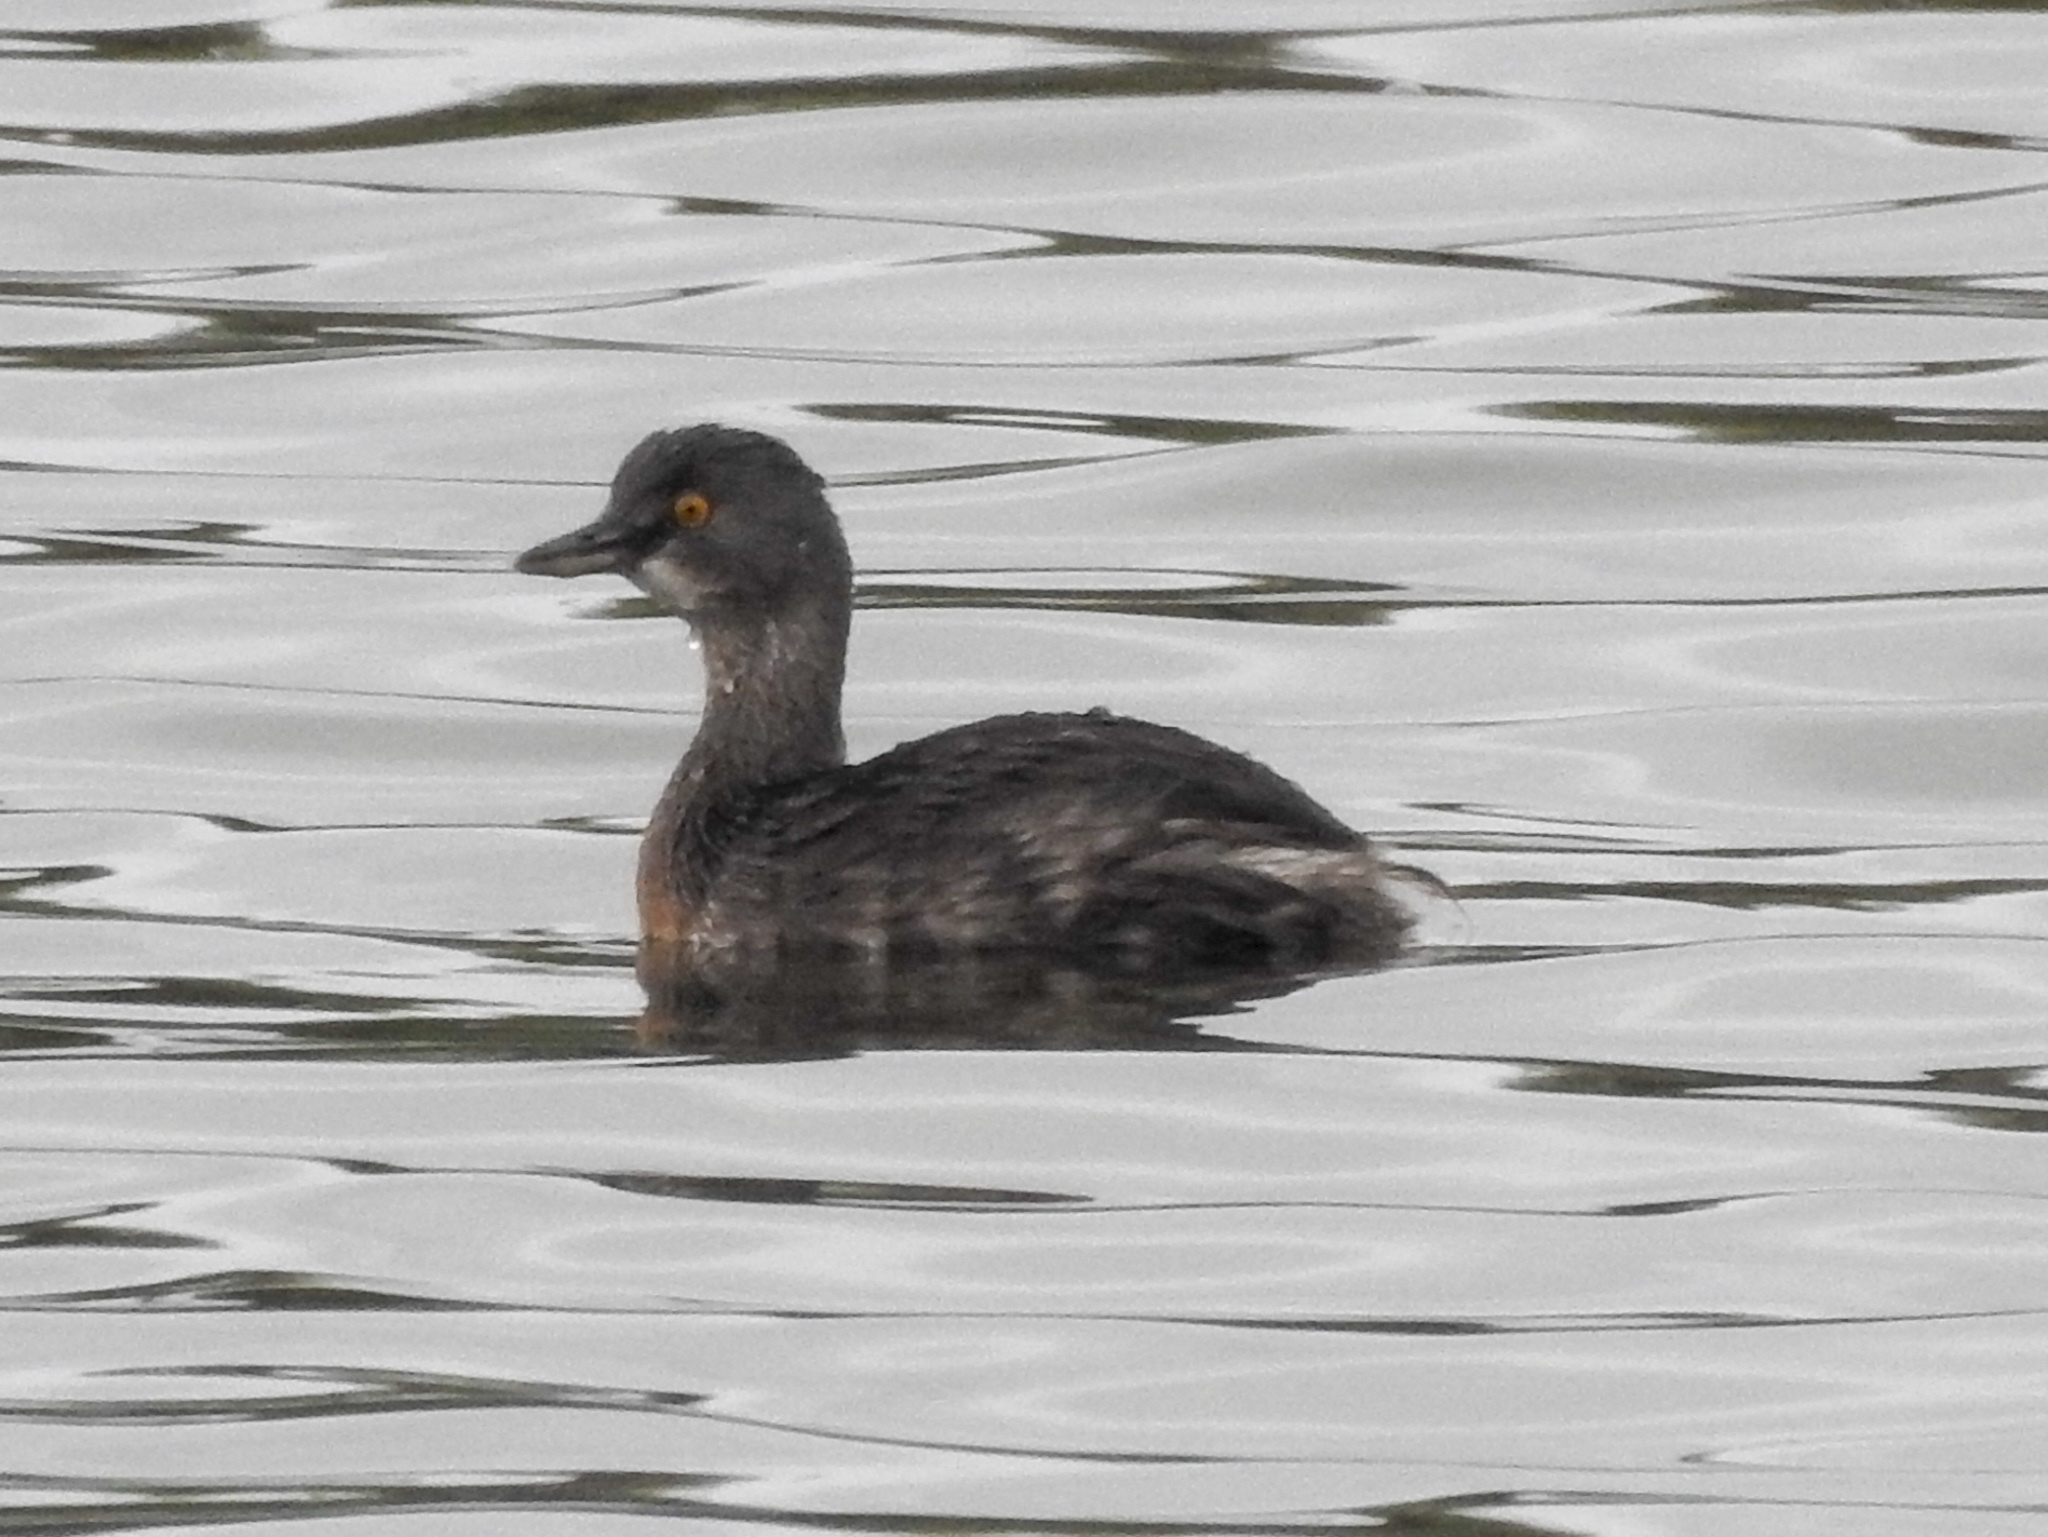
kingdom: Animalia
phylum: Chordata
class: Aves
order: Podicipediformes
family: Podicipedidae
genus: Tachybaptus
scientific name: Tachybaptus dominicus
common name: Least grebe
